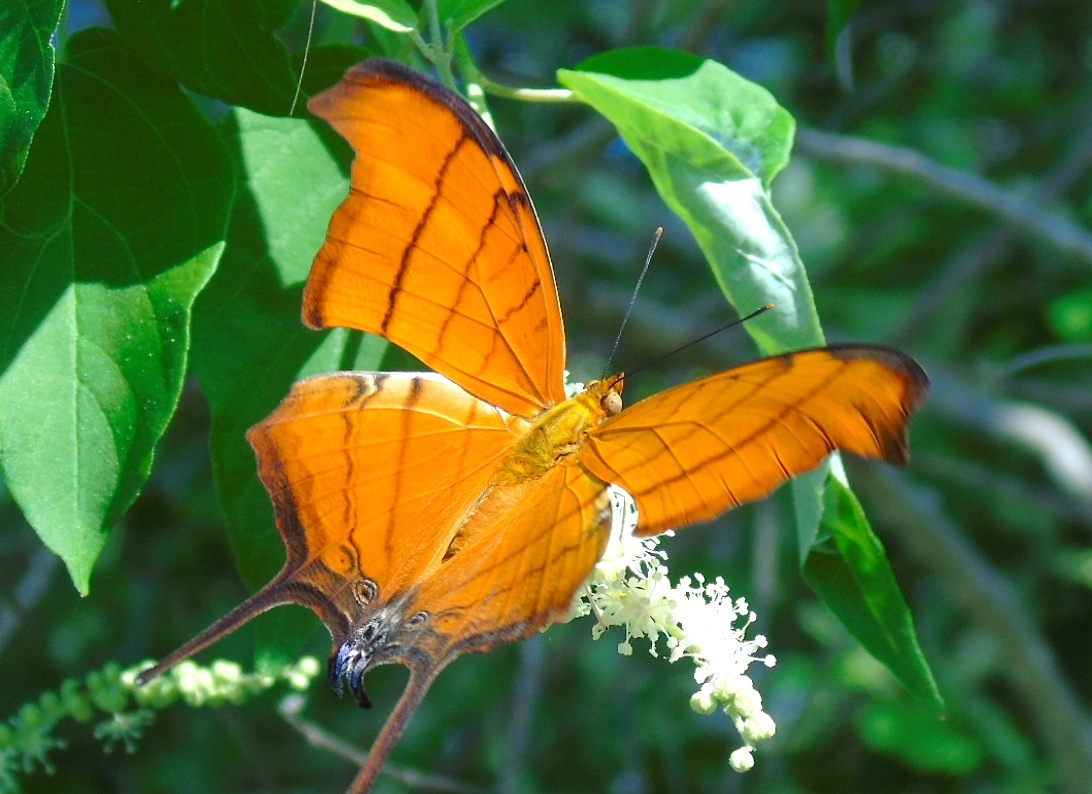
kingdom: Animalia
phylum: Arthropoda
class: Insecta
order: Lepidoptera
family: Nymphalidae
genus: Marpesia
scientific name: Marpesia petreus
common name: Red dagger wing
